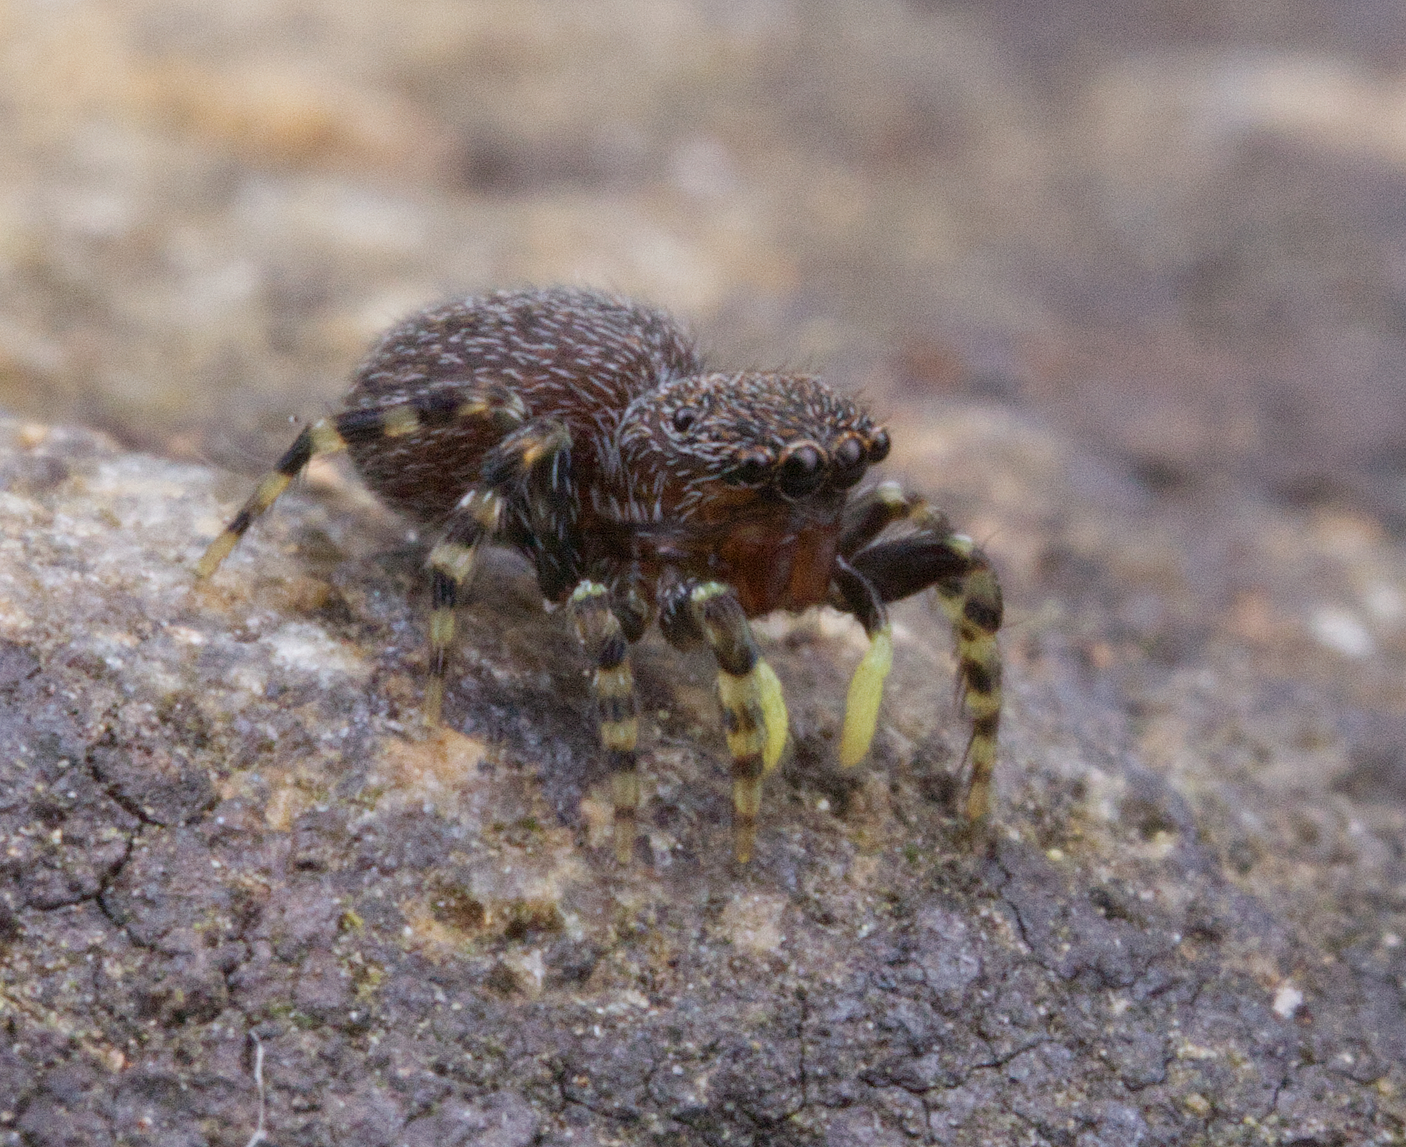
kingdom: Animalia
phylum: Arthropoda
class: Arachnida
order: Araneae
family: Salticidae
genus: Talavera
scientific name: Talavera minuta
